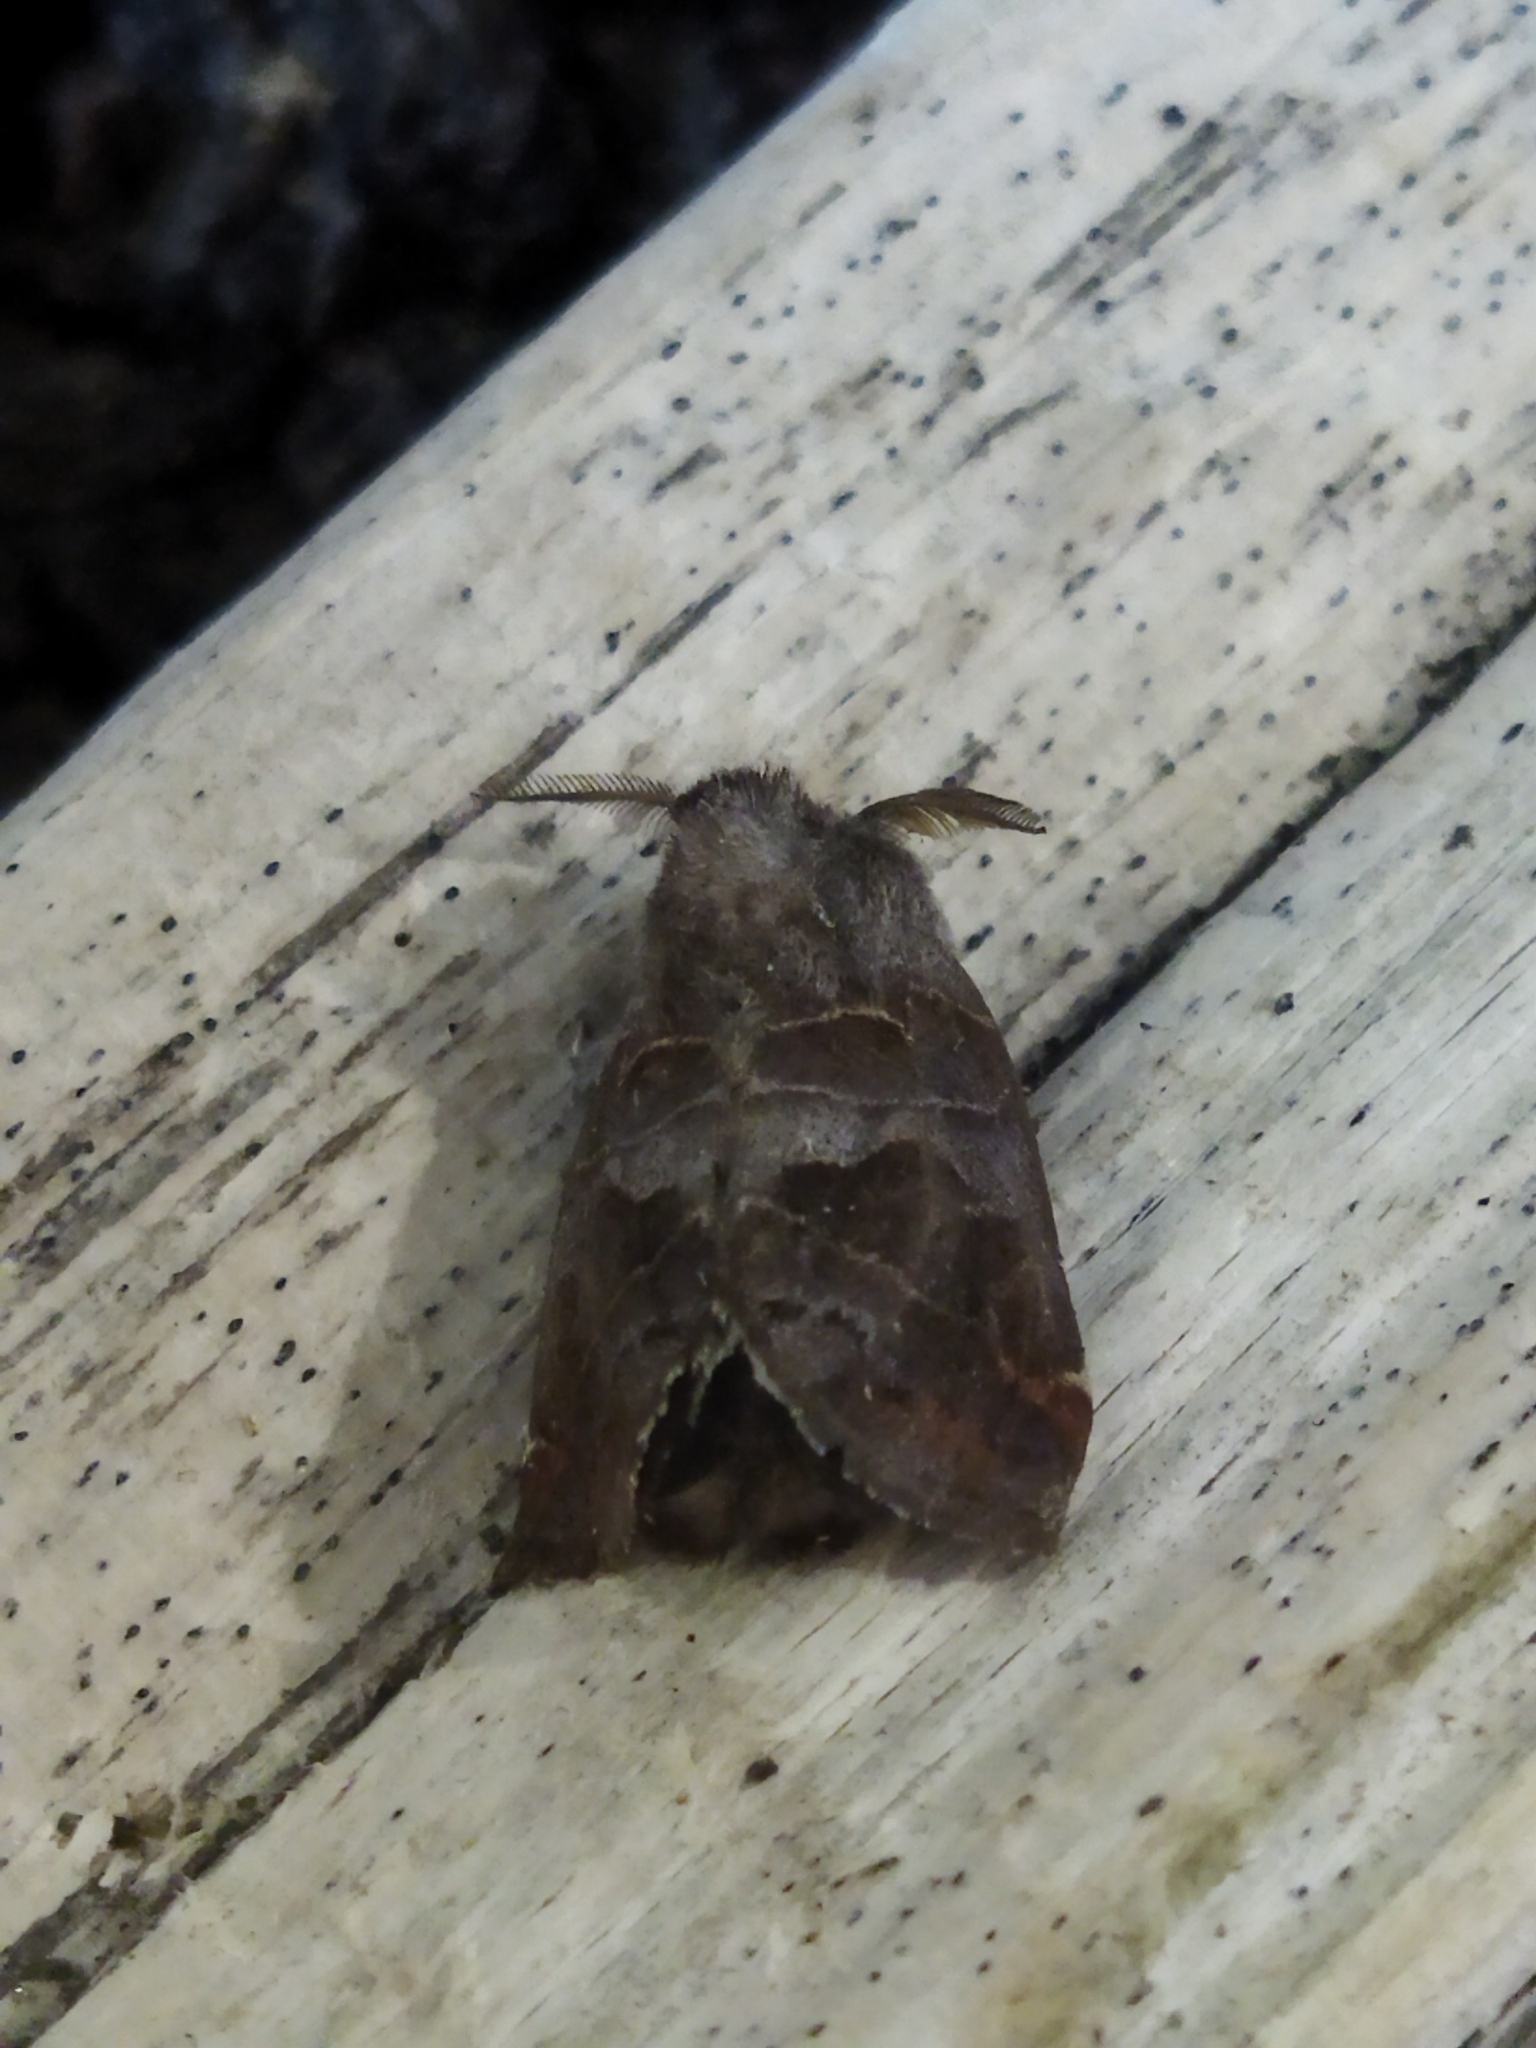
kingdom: Animalia
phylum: Arthropoda
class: Insecta
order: Lepidoptera
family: Notodontidae
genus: Clostera
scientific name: Clostera pigra
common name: Small chocolate-tip
